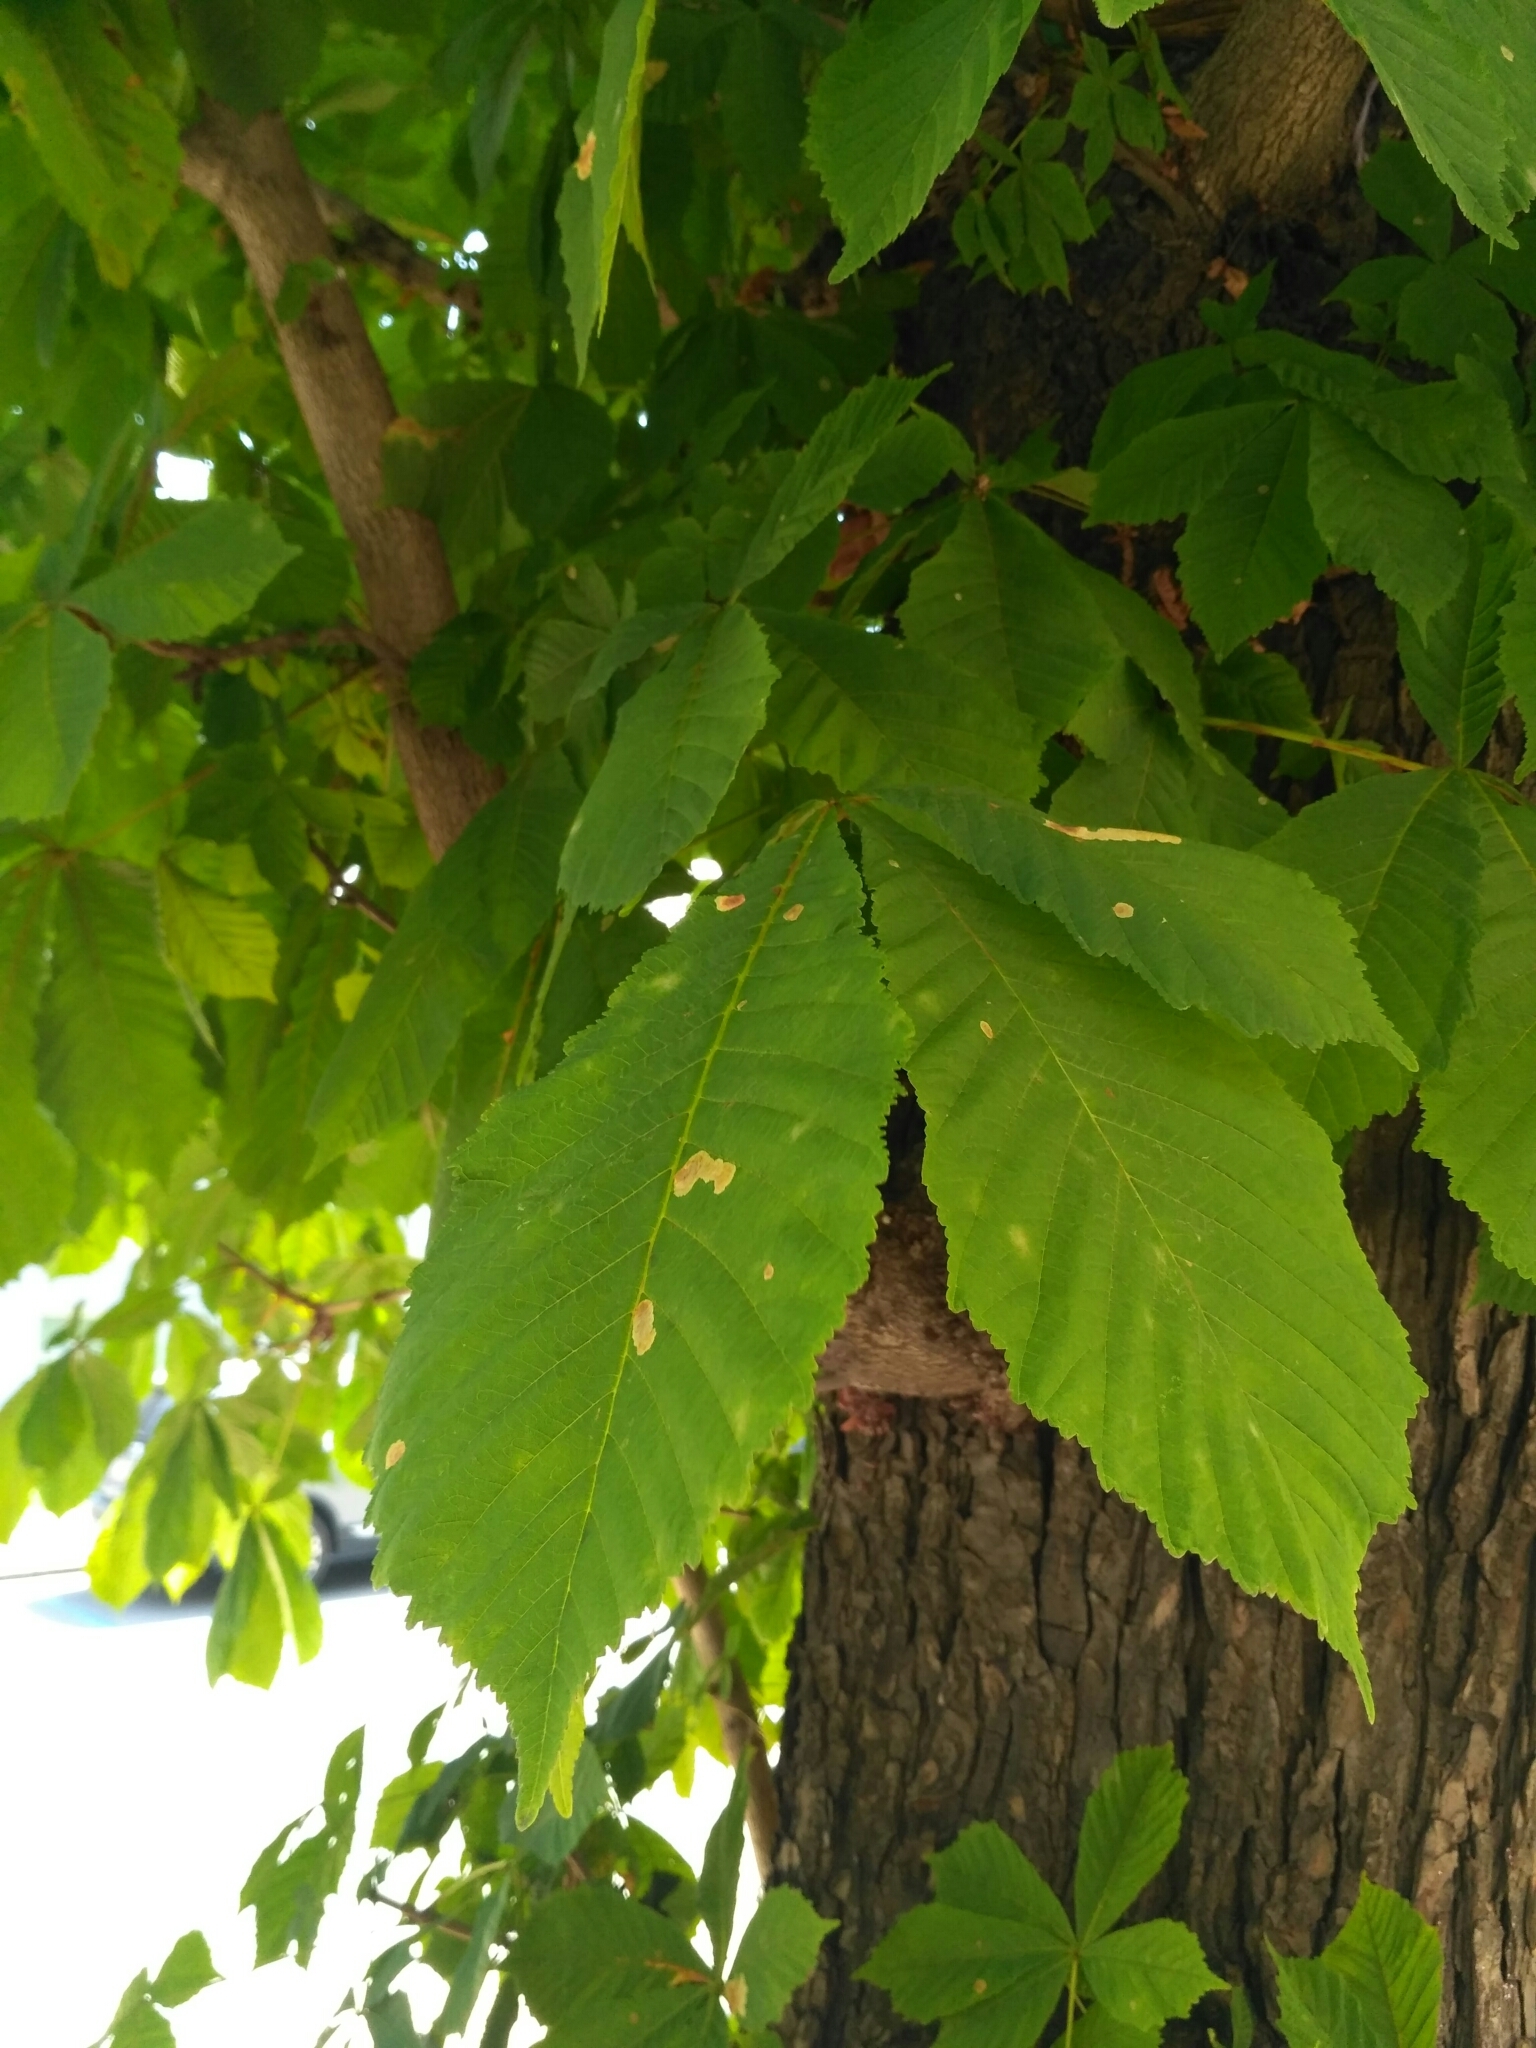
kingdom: Animalia
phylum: Arthropoda
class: Insecta
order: Lepidoptera
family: Gracillariidae
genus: Cameraria
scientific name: Cameraria ohridella
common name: Horse-chestnut leaf-miner
